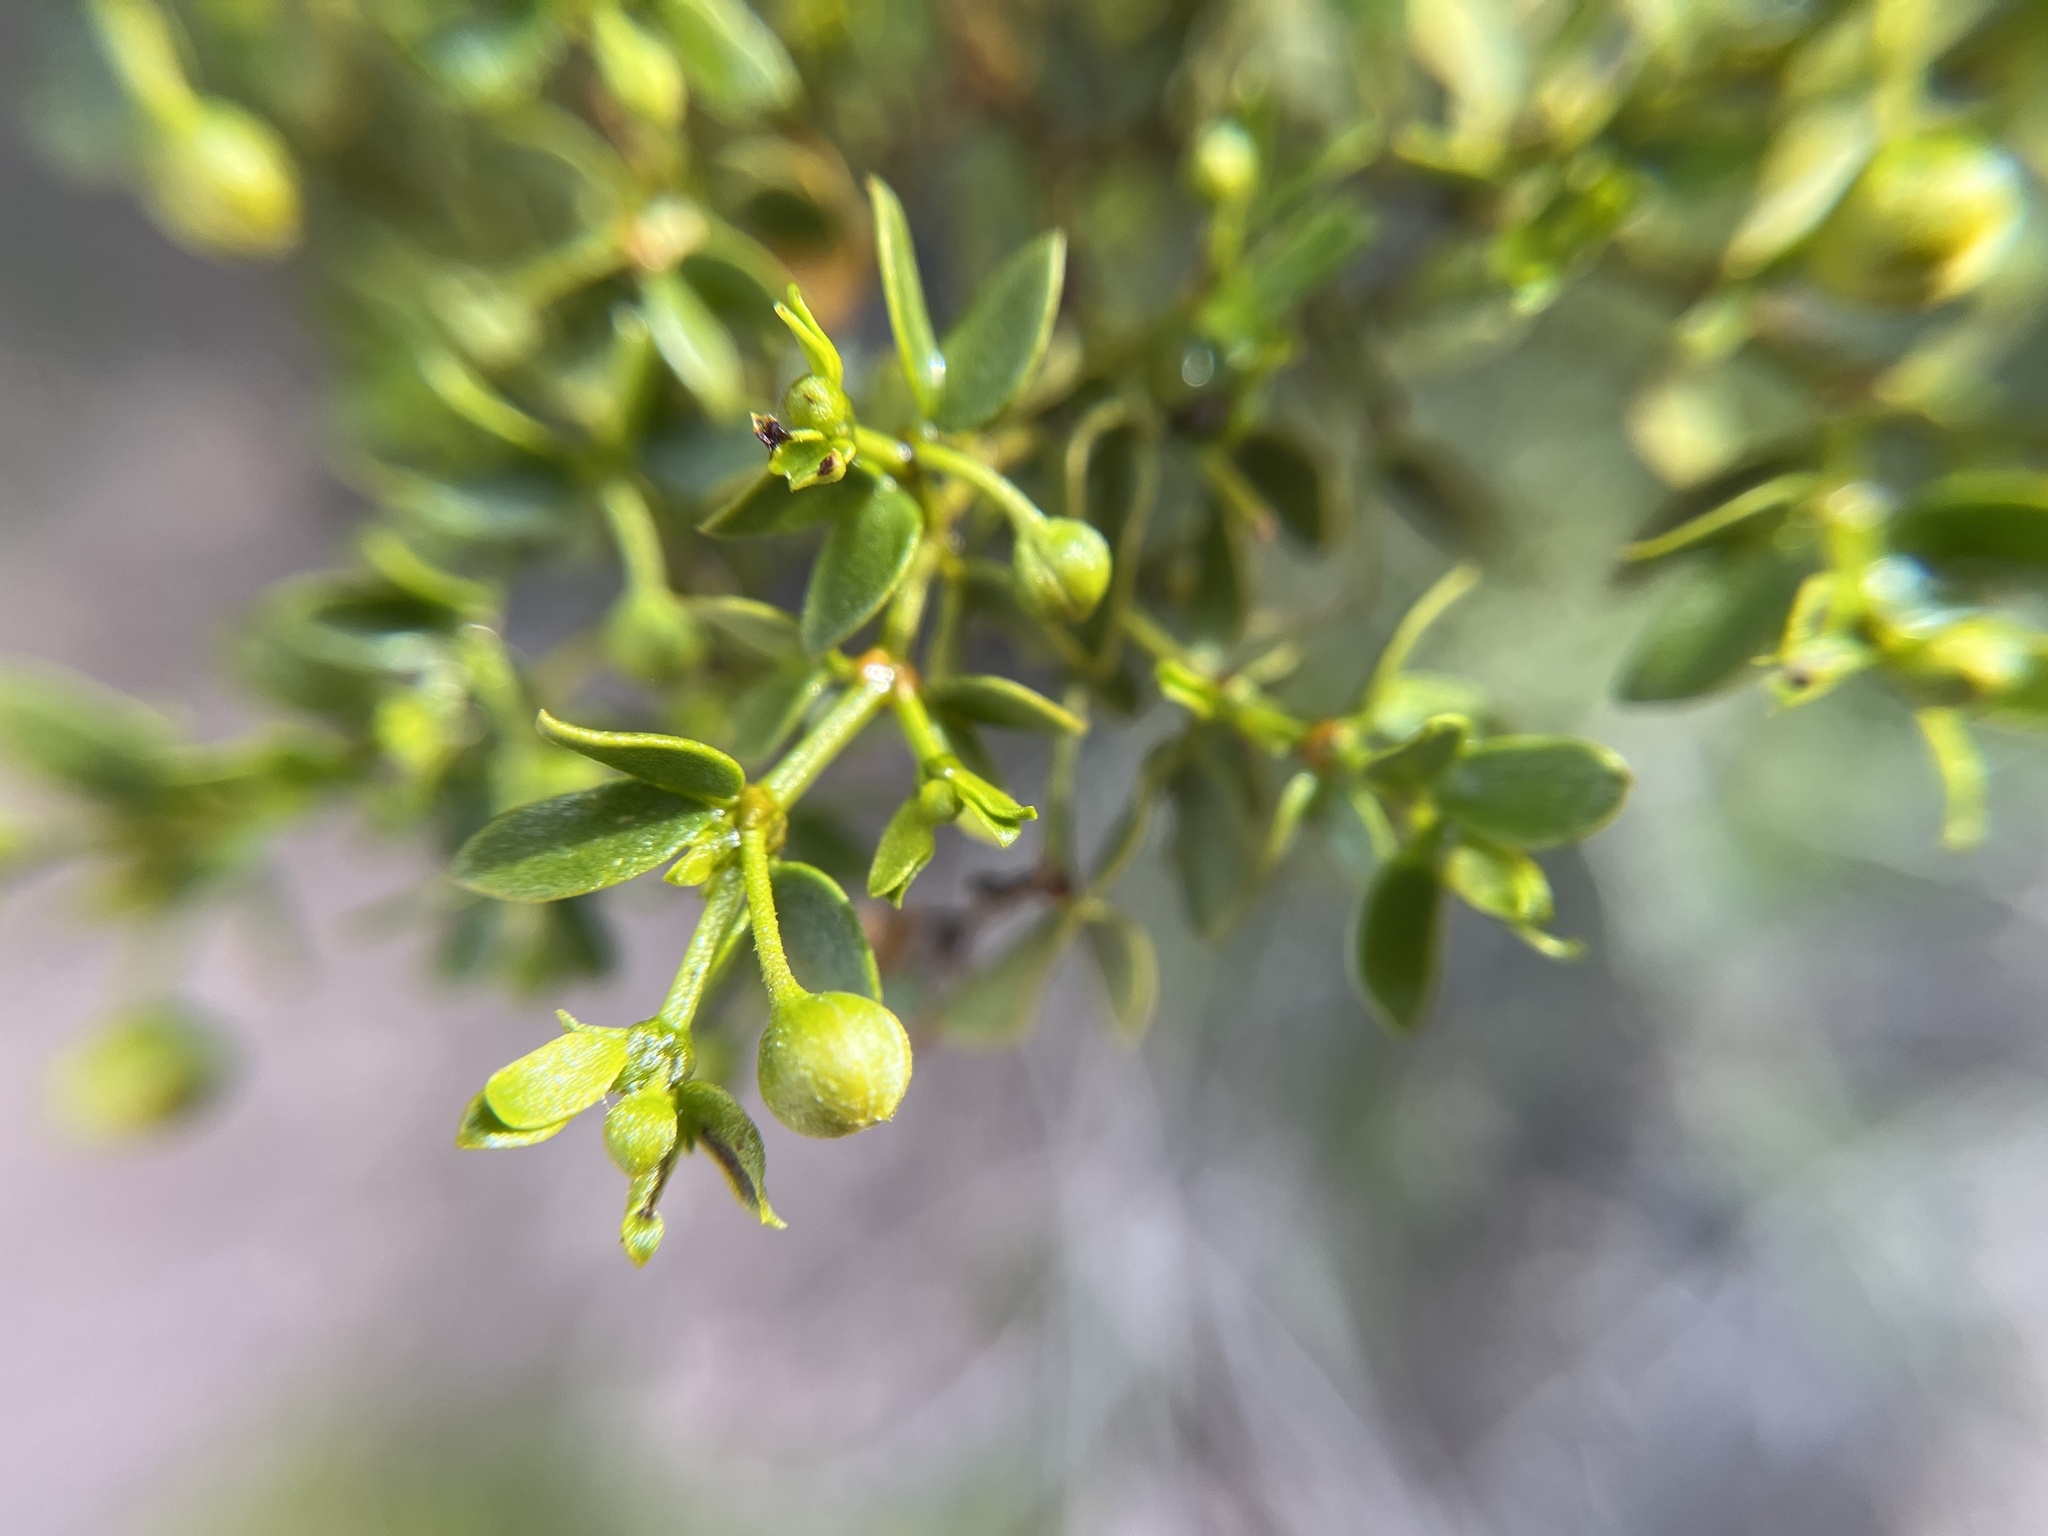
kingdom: Plantae
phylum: Tracheophyta
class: Magnoliopsida
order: Zygophyllales
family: Zygophyllaceae
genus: Larrea
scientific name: Larrea tridentata
